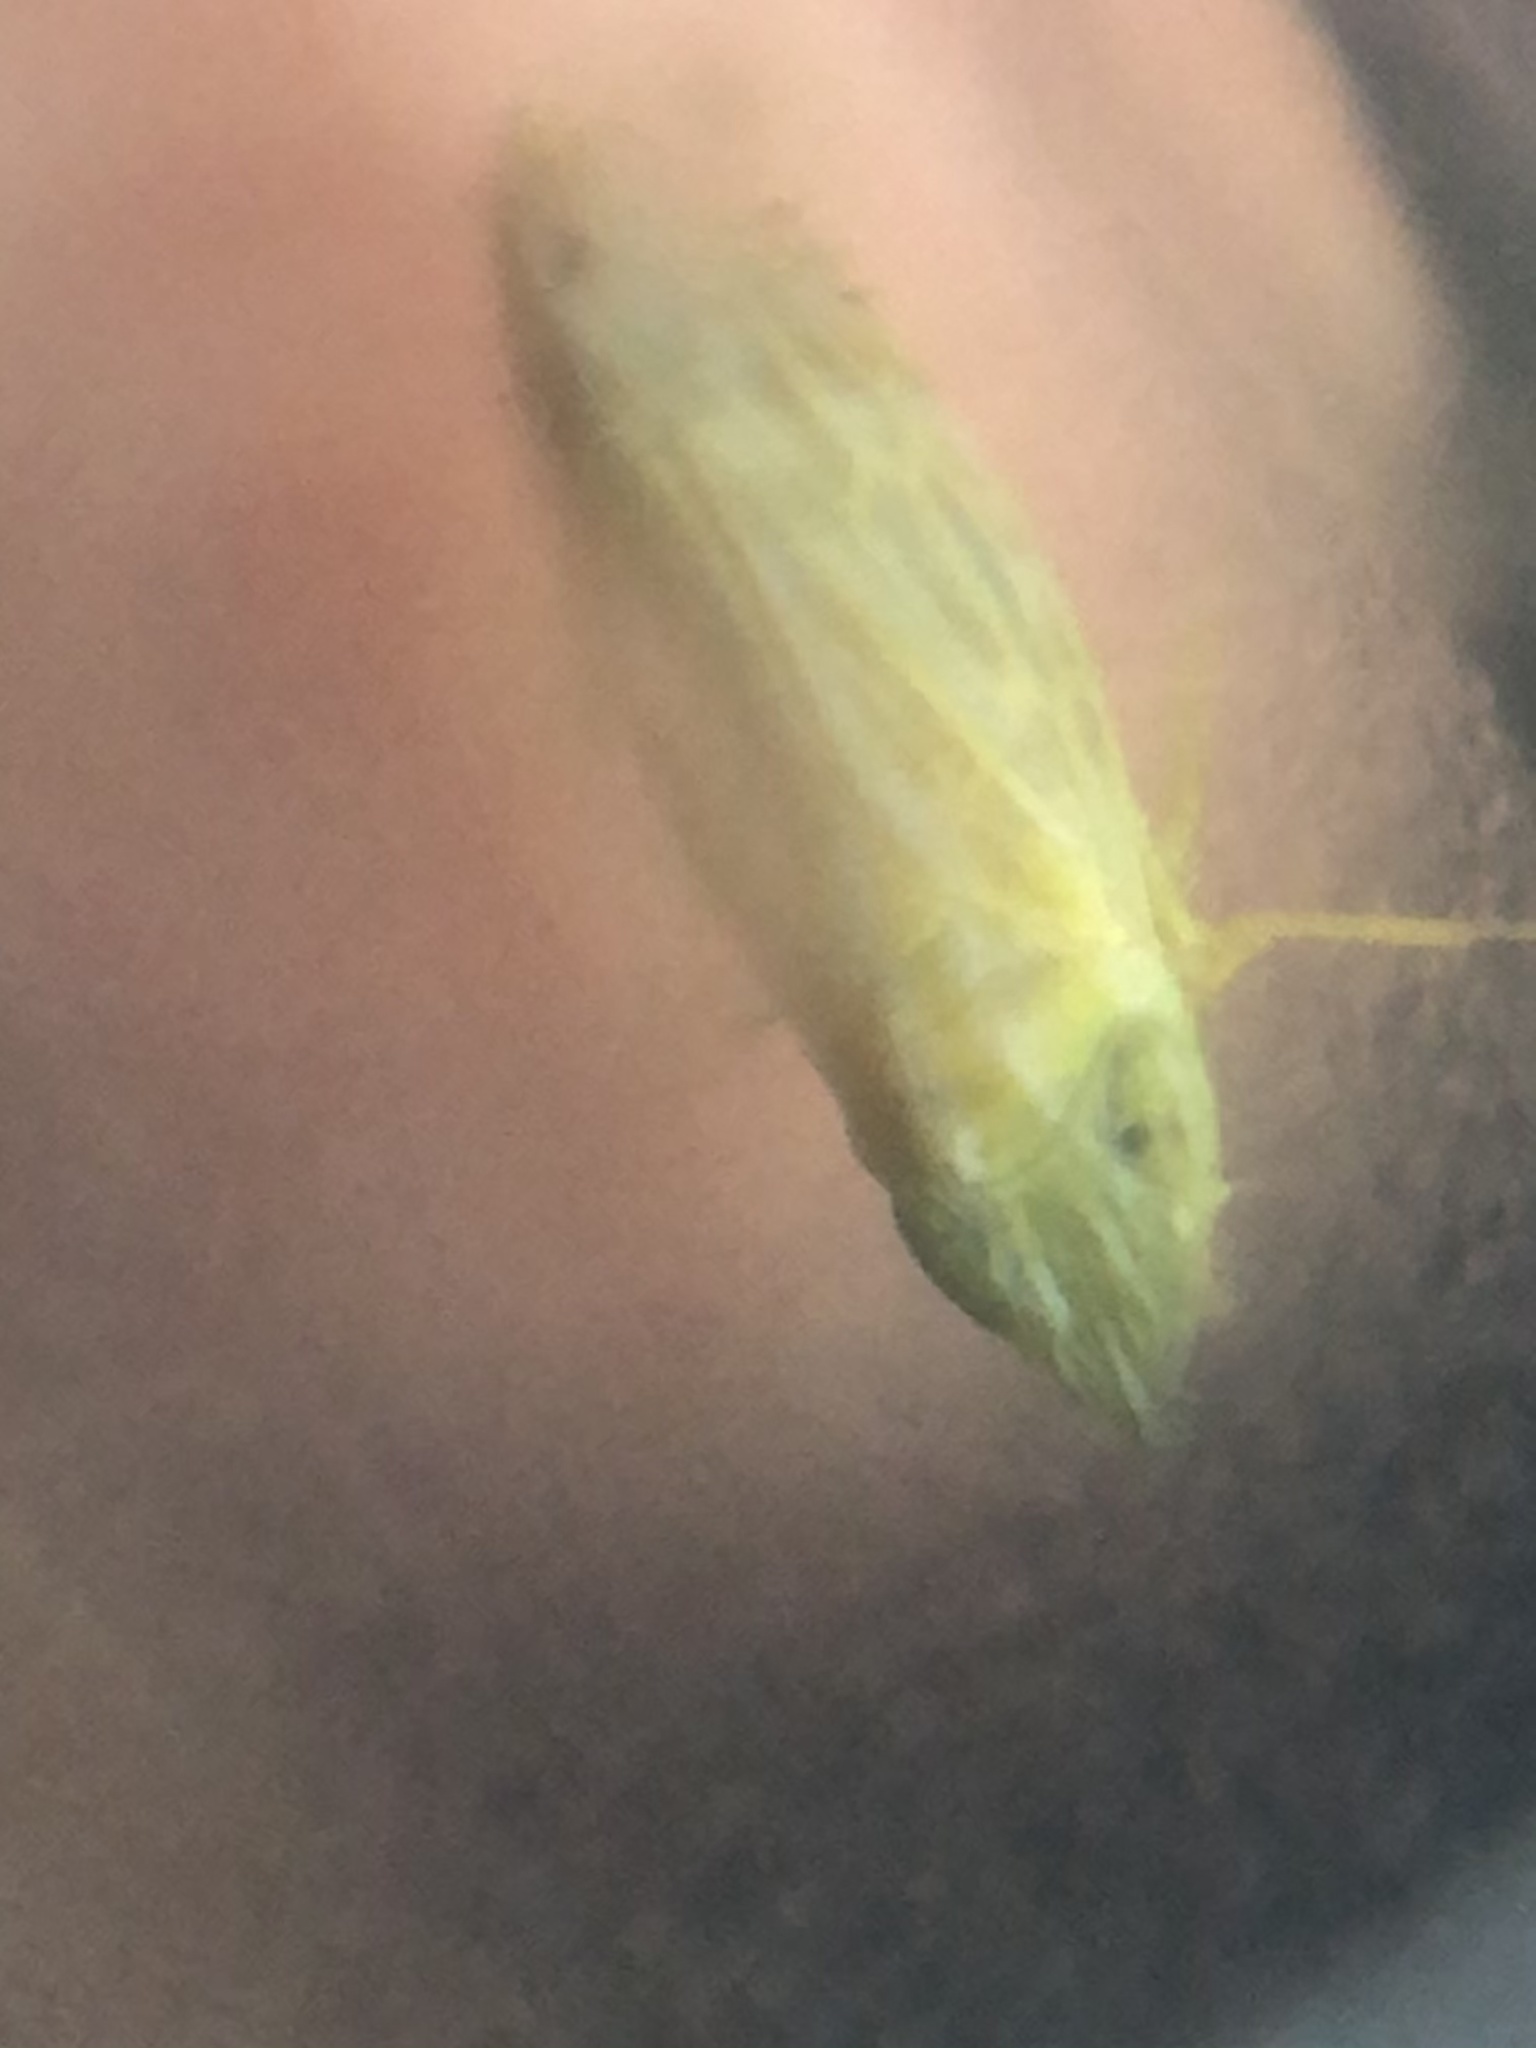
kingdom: Animalia
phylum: Arthropoda
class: Insecta
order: Hemiptera
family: Cicadellidae
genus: Scaphytopius
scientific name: Scaphytopius nigriviridis
